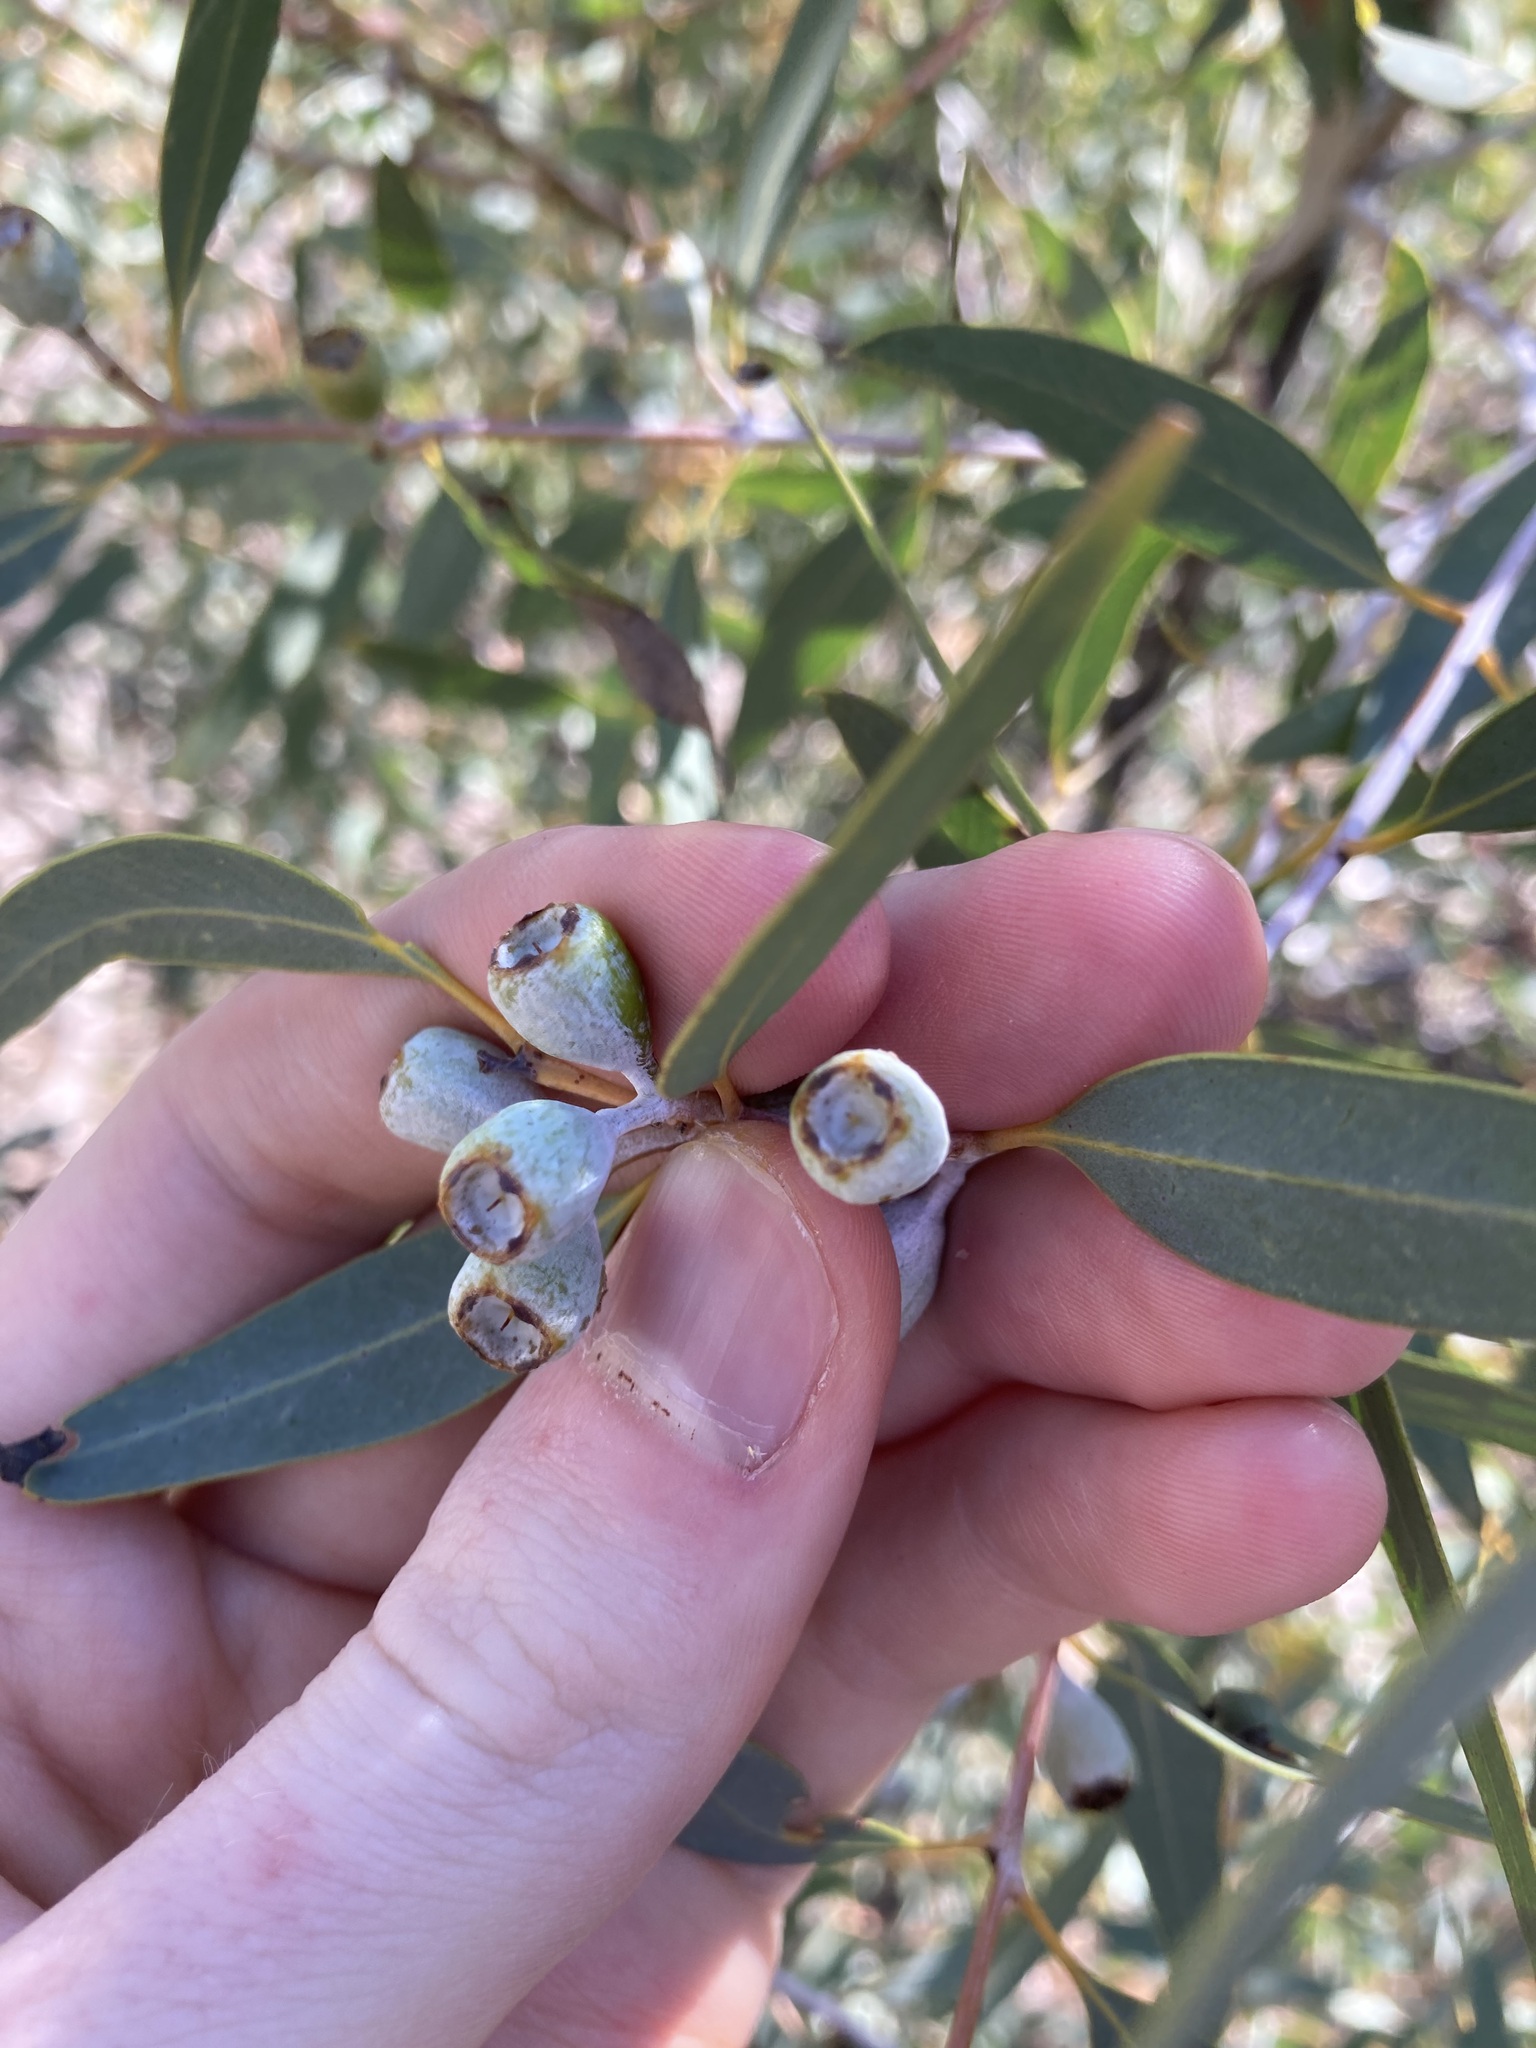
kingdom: Plantae
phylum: Tracheophyta
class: Magnoliopsida
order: Myrtales
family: Myrtaceae
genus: Eucalyptus
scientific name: Eucalyptus eudesmioides
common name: Desert gum
